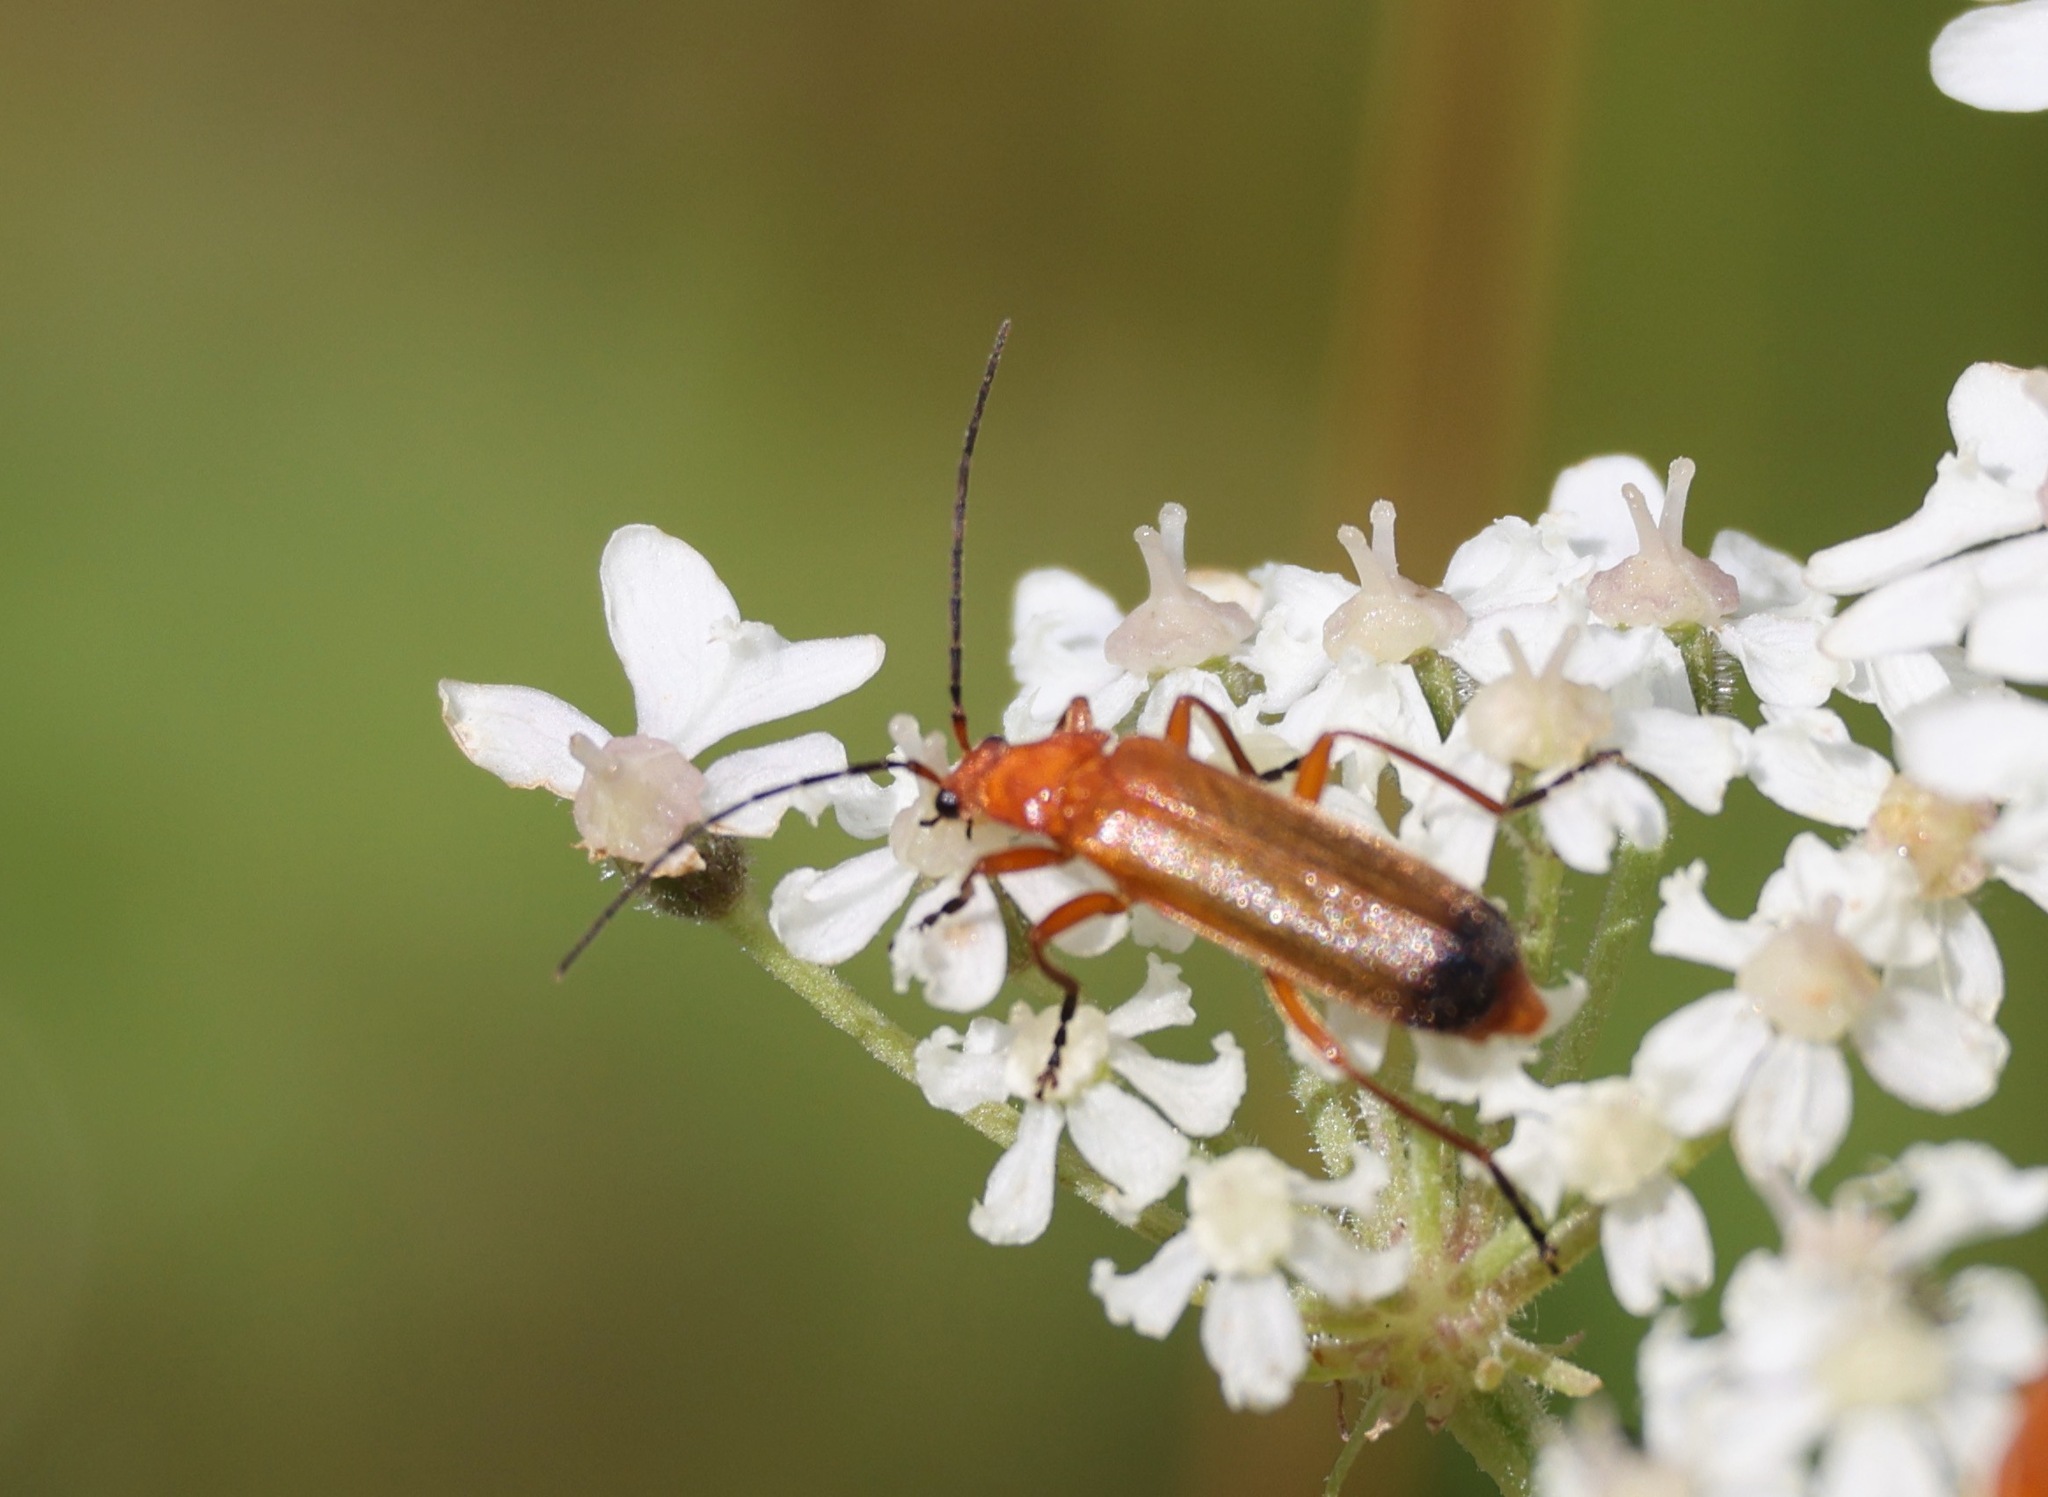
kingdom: Animalia
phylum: Arthropoda
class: Insecta
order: Coleoptera
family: Cantharidae
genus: Rhagonycha
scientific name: Rhagonycha fulva
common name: Common red soldier beetle
